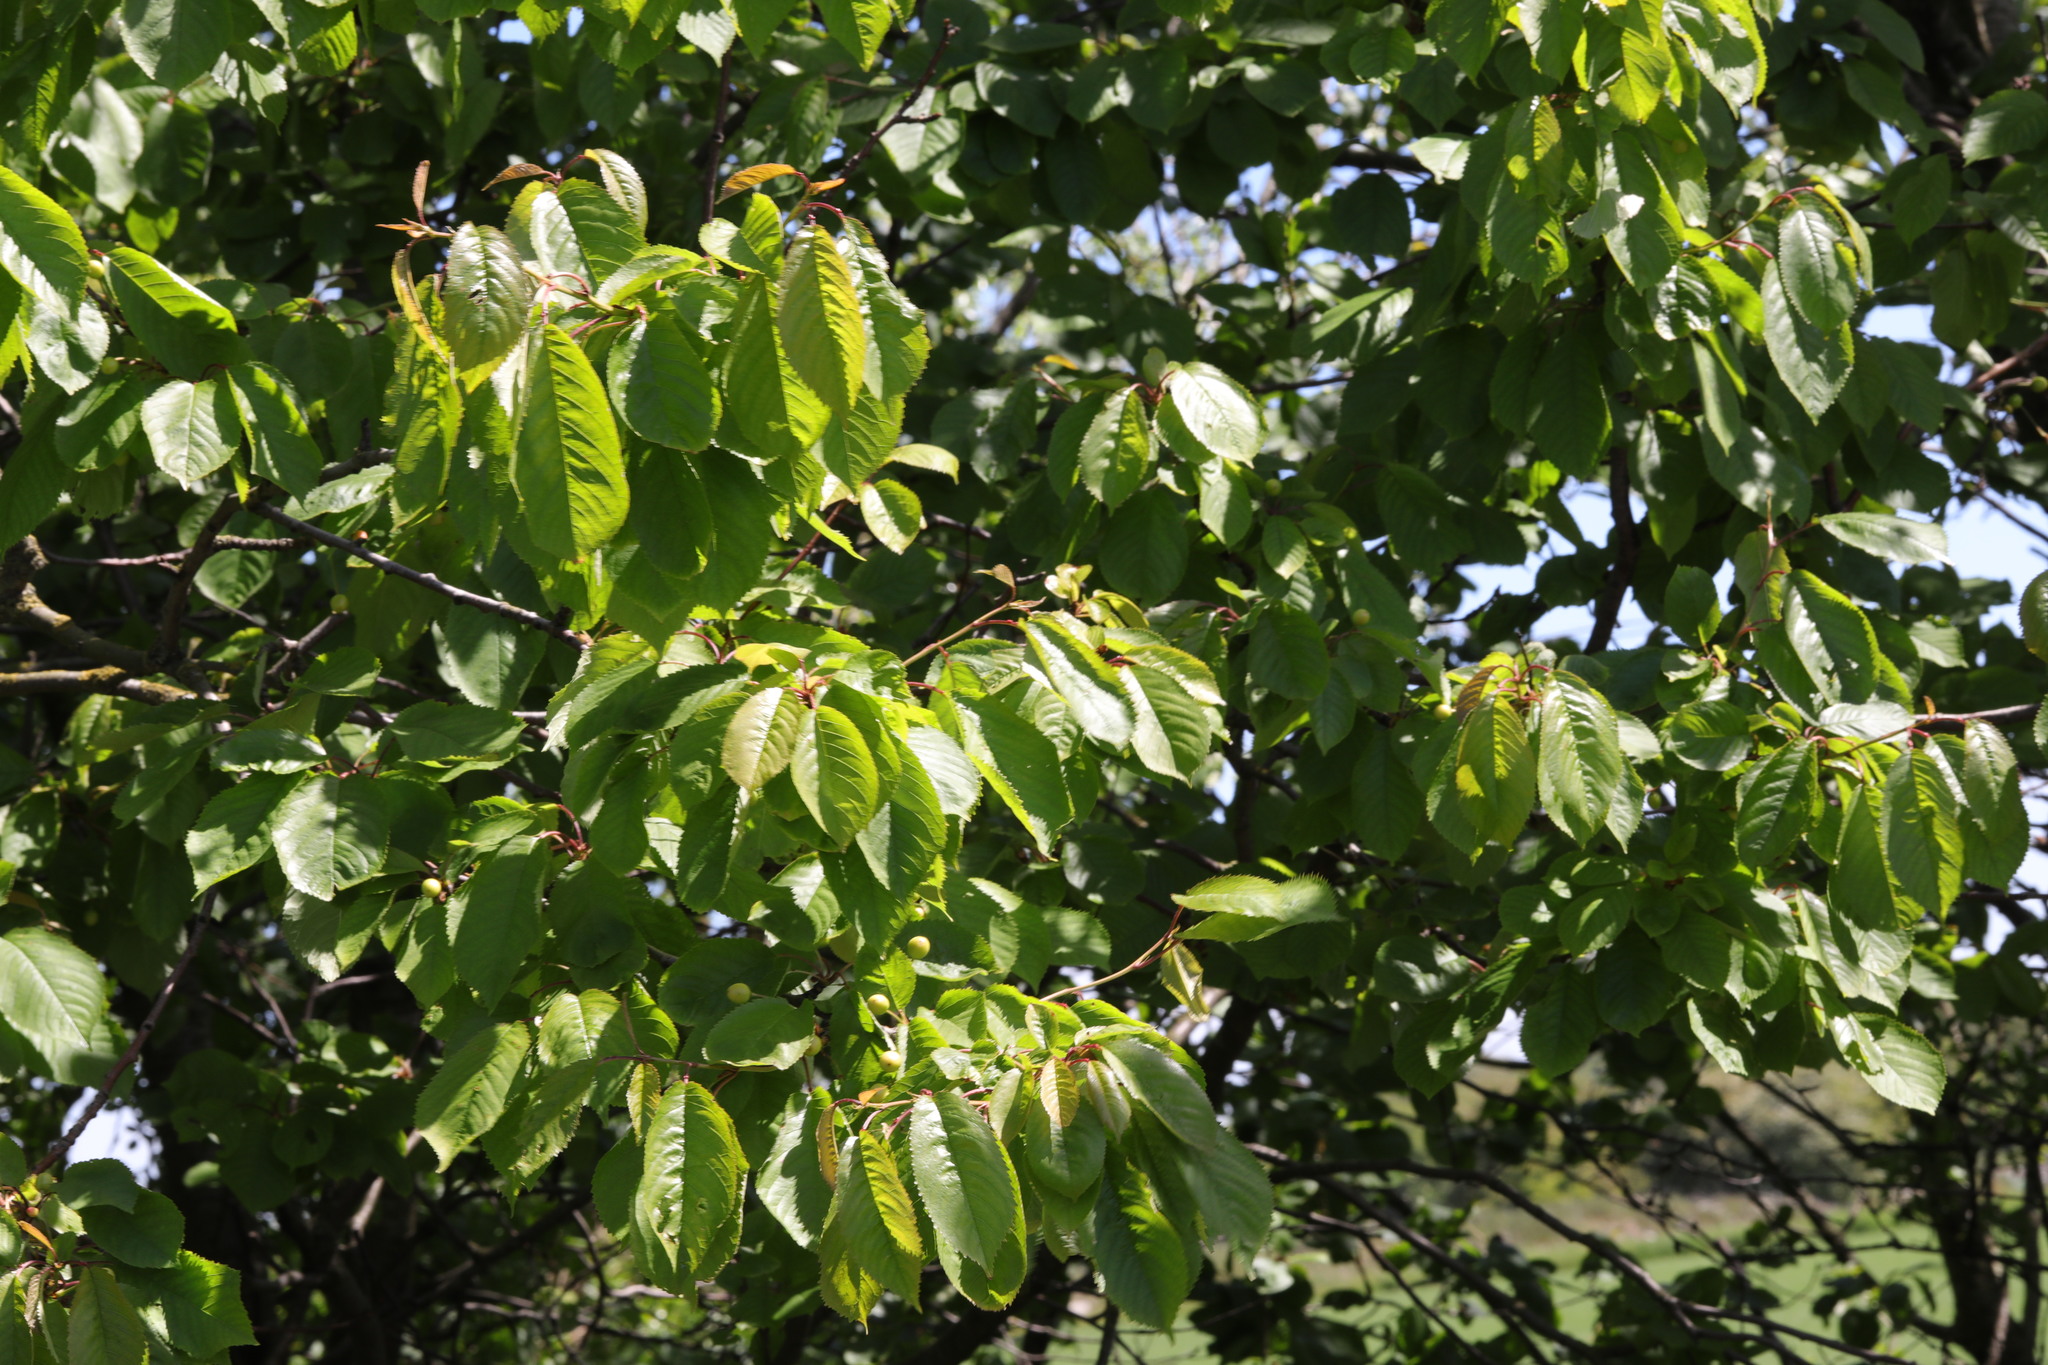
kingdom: Plantae
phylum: Tracheophyta
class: Magnoliopsida
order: Rosales
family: Rosaceae
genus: Prunus
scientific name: Prunus avium
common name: Sweet cherry
